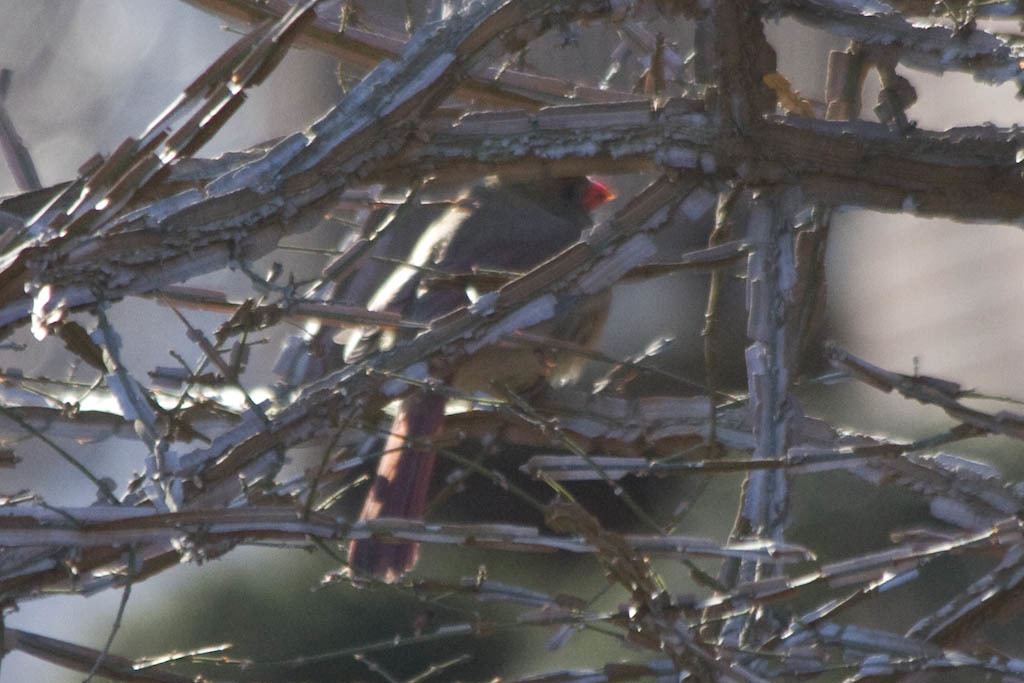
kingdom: Animalia
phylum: Chordata
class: Aves
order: Passeriformes
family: Cardinalidae
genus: Cardinalis
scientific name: Cardinalis cardinalis
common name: Northern cardinal
